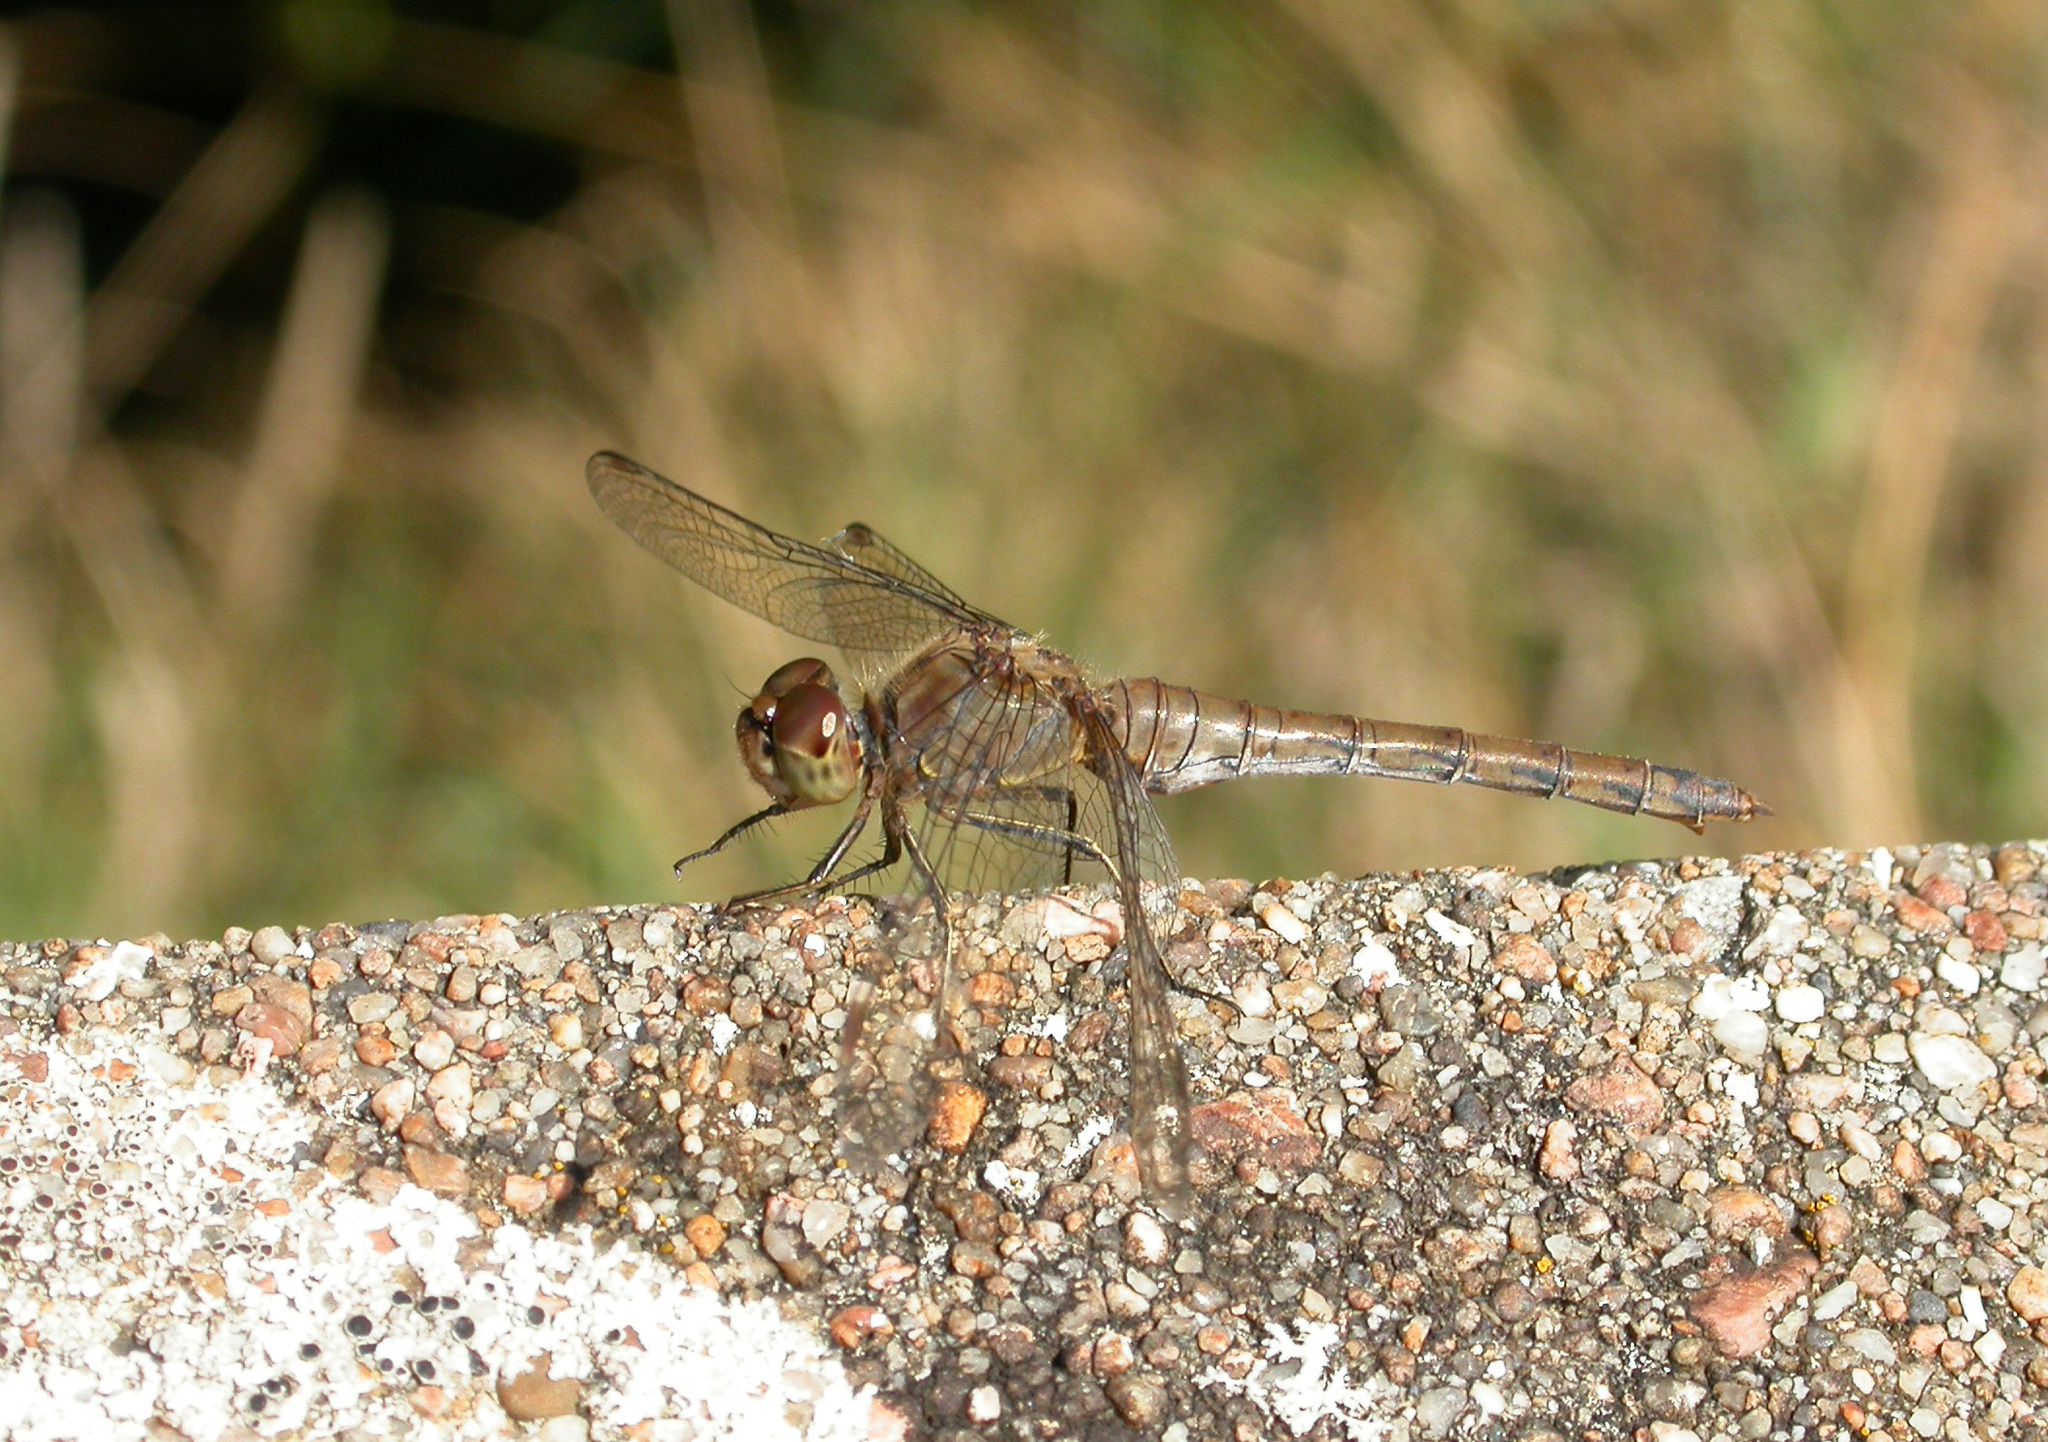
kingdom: Animalia
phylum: Arthropoda
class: Insecta
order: Odonata
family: Libellulidae
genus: Sympetrum
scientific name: Sympetrum striolatum
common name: Common darter
